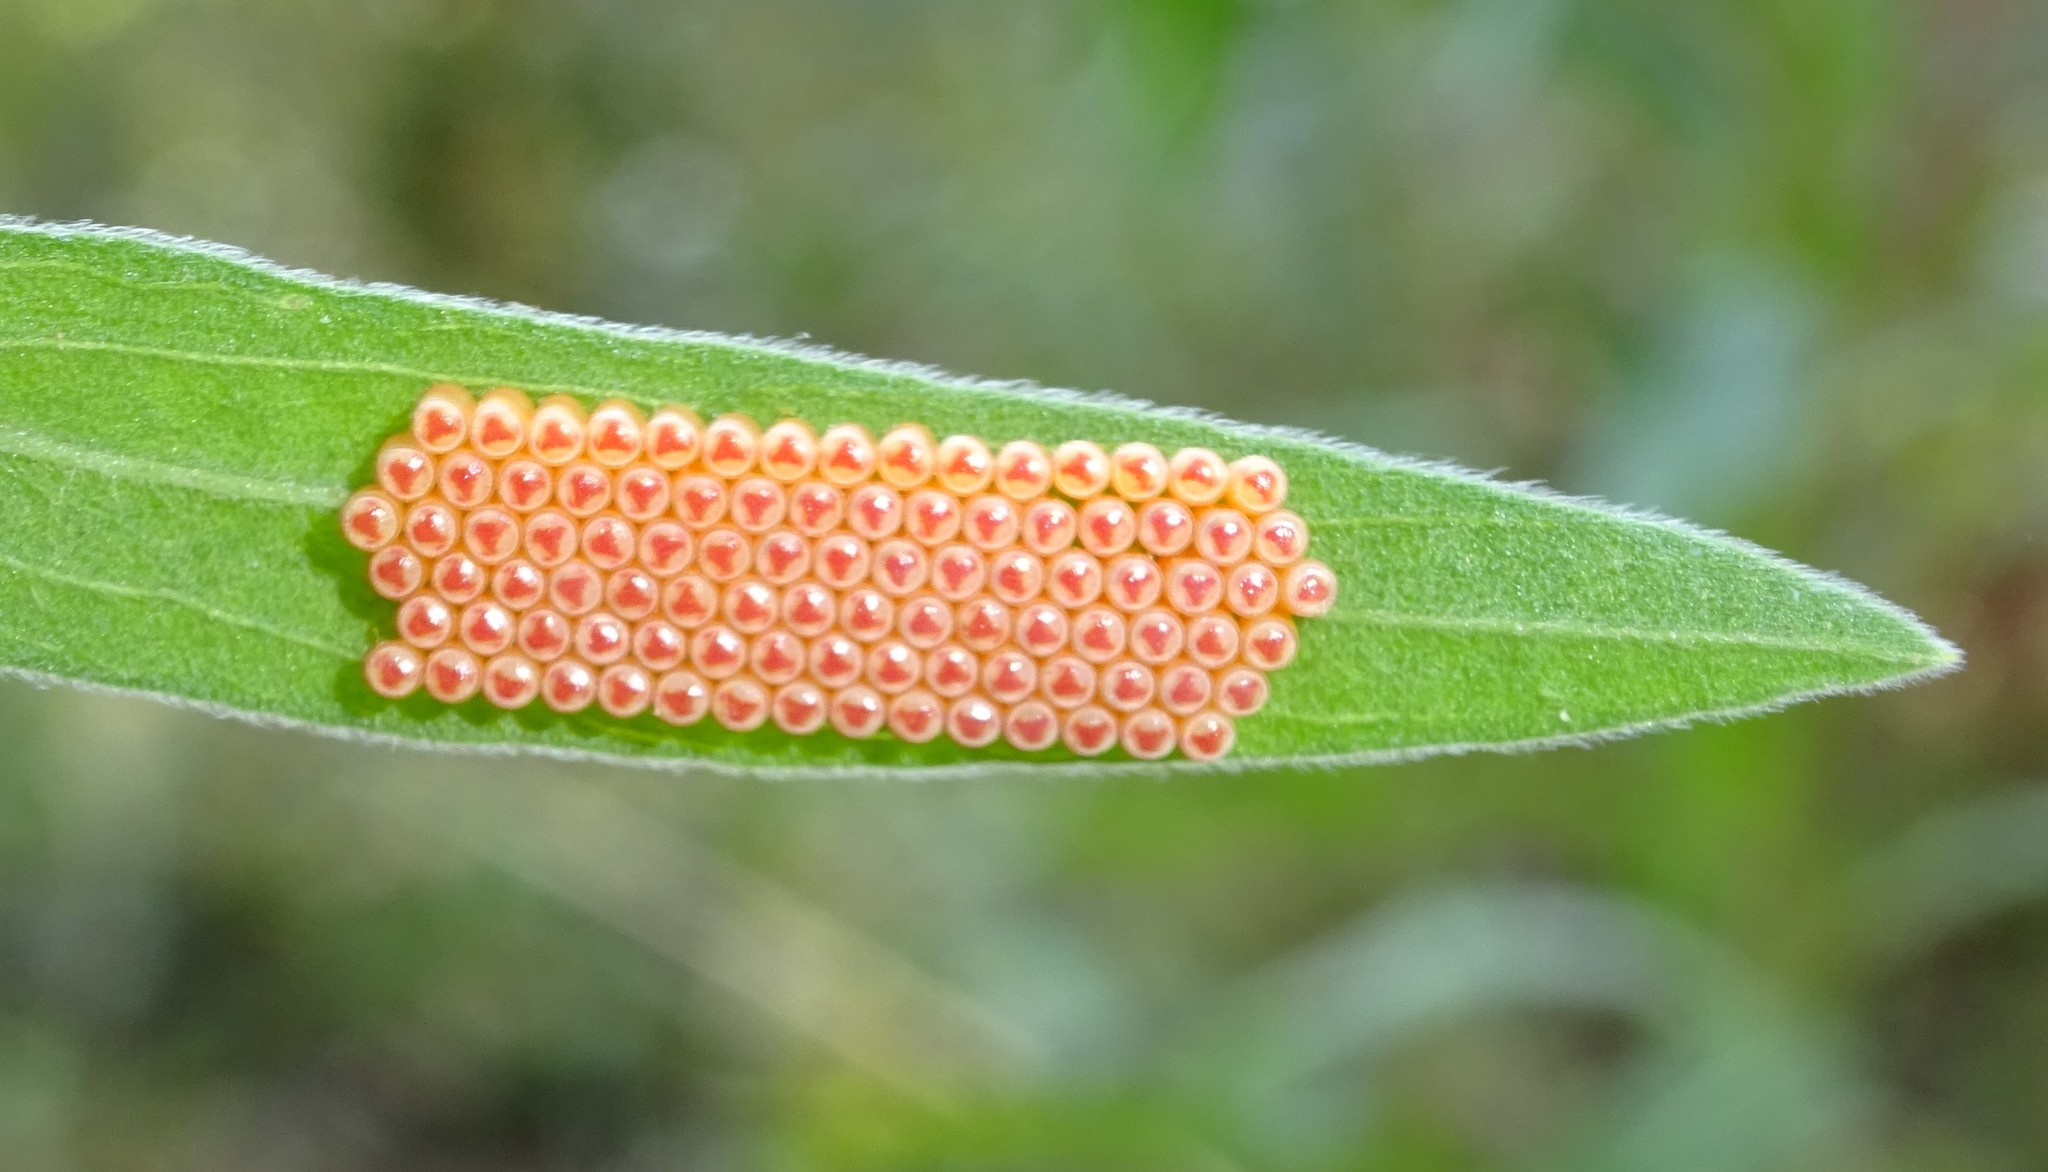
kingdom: Animalia
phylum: Arthropoda
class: Insecta
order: Hemiptera
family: Pentatomidae
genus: Nezara
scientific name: Nezara viridula
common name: Southern green stink bug
